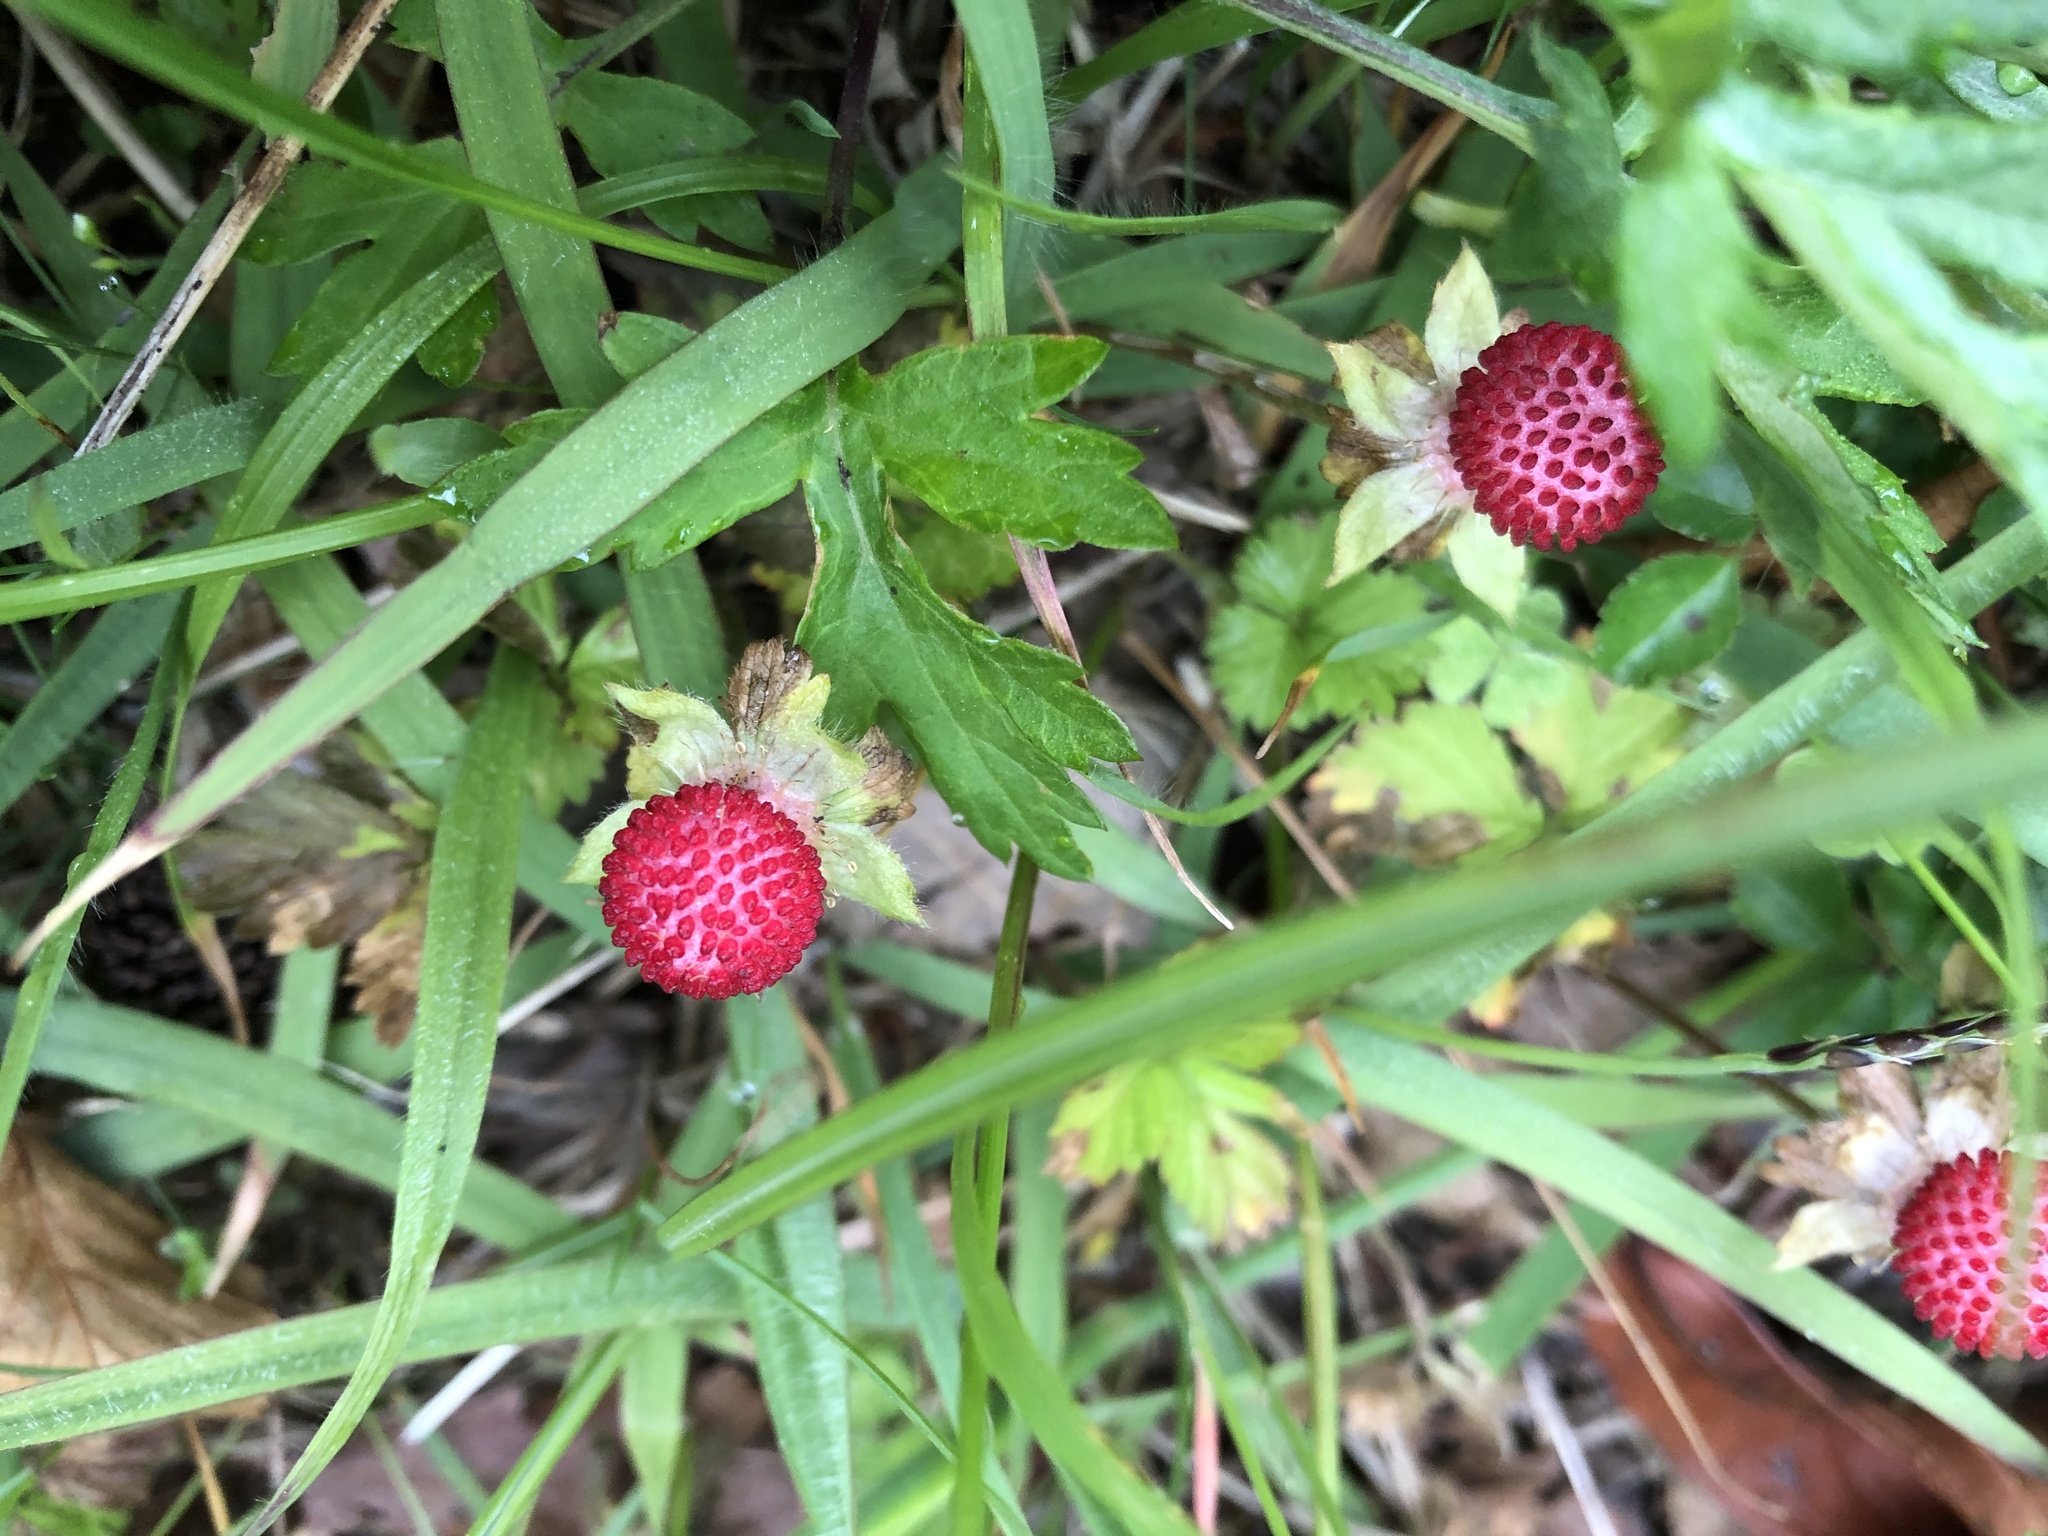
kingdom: Plantae
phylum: Tracheophyta
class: Magnoliopsida
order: Rosales
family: Rosaceae
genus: Potentilla
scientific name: Potentilla wallichiana
